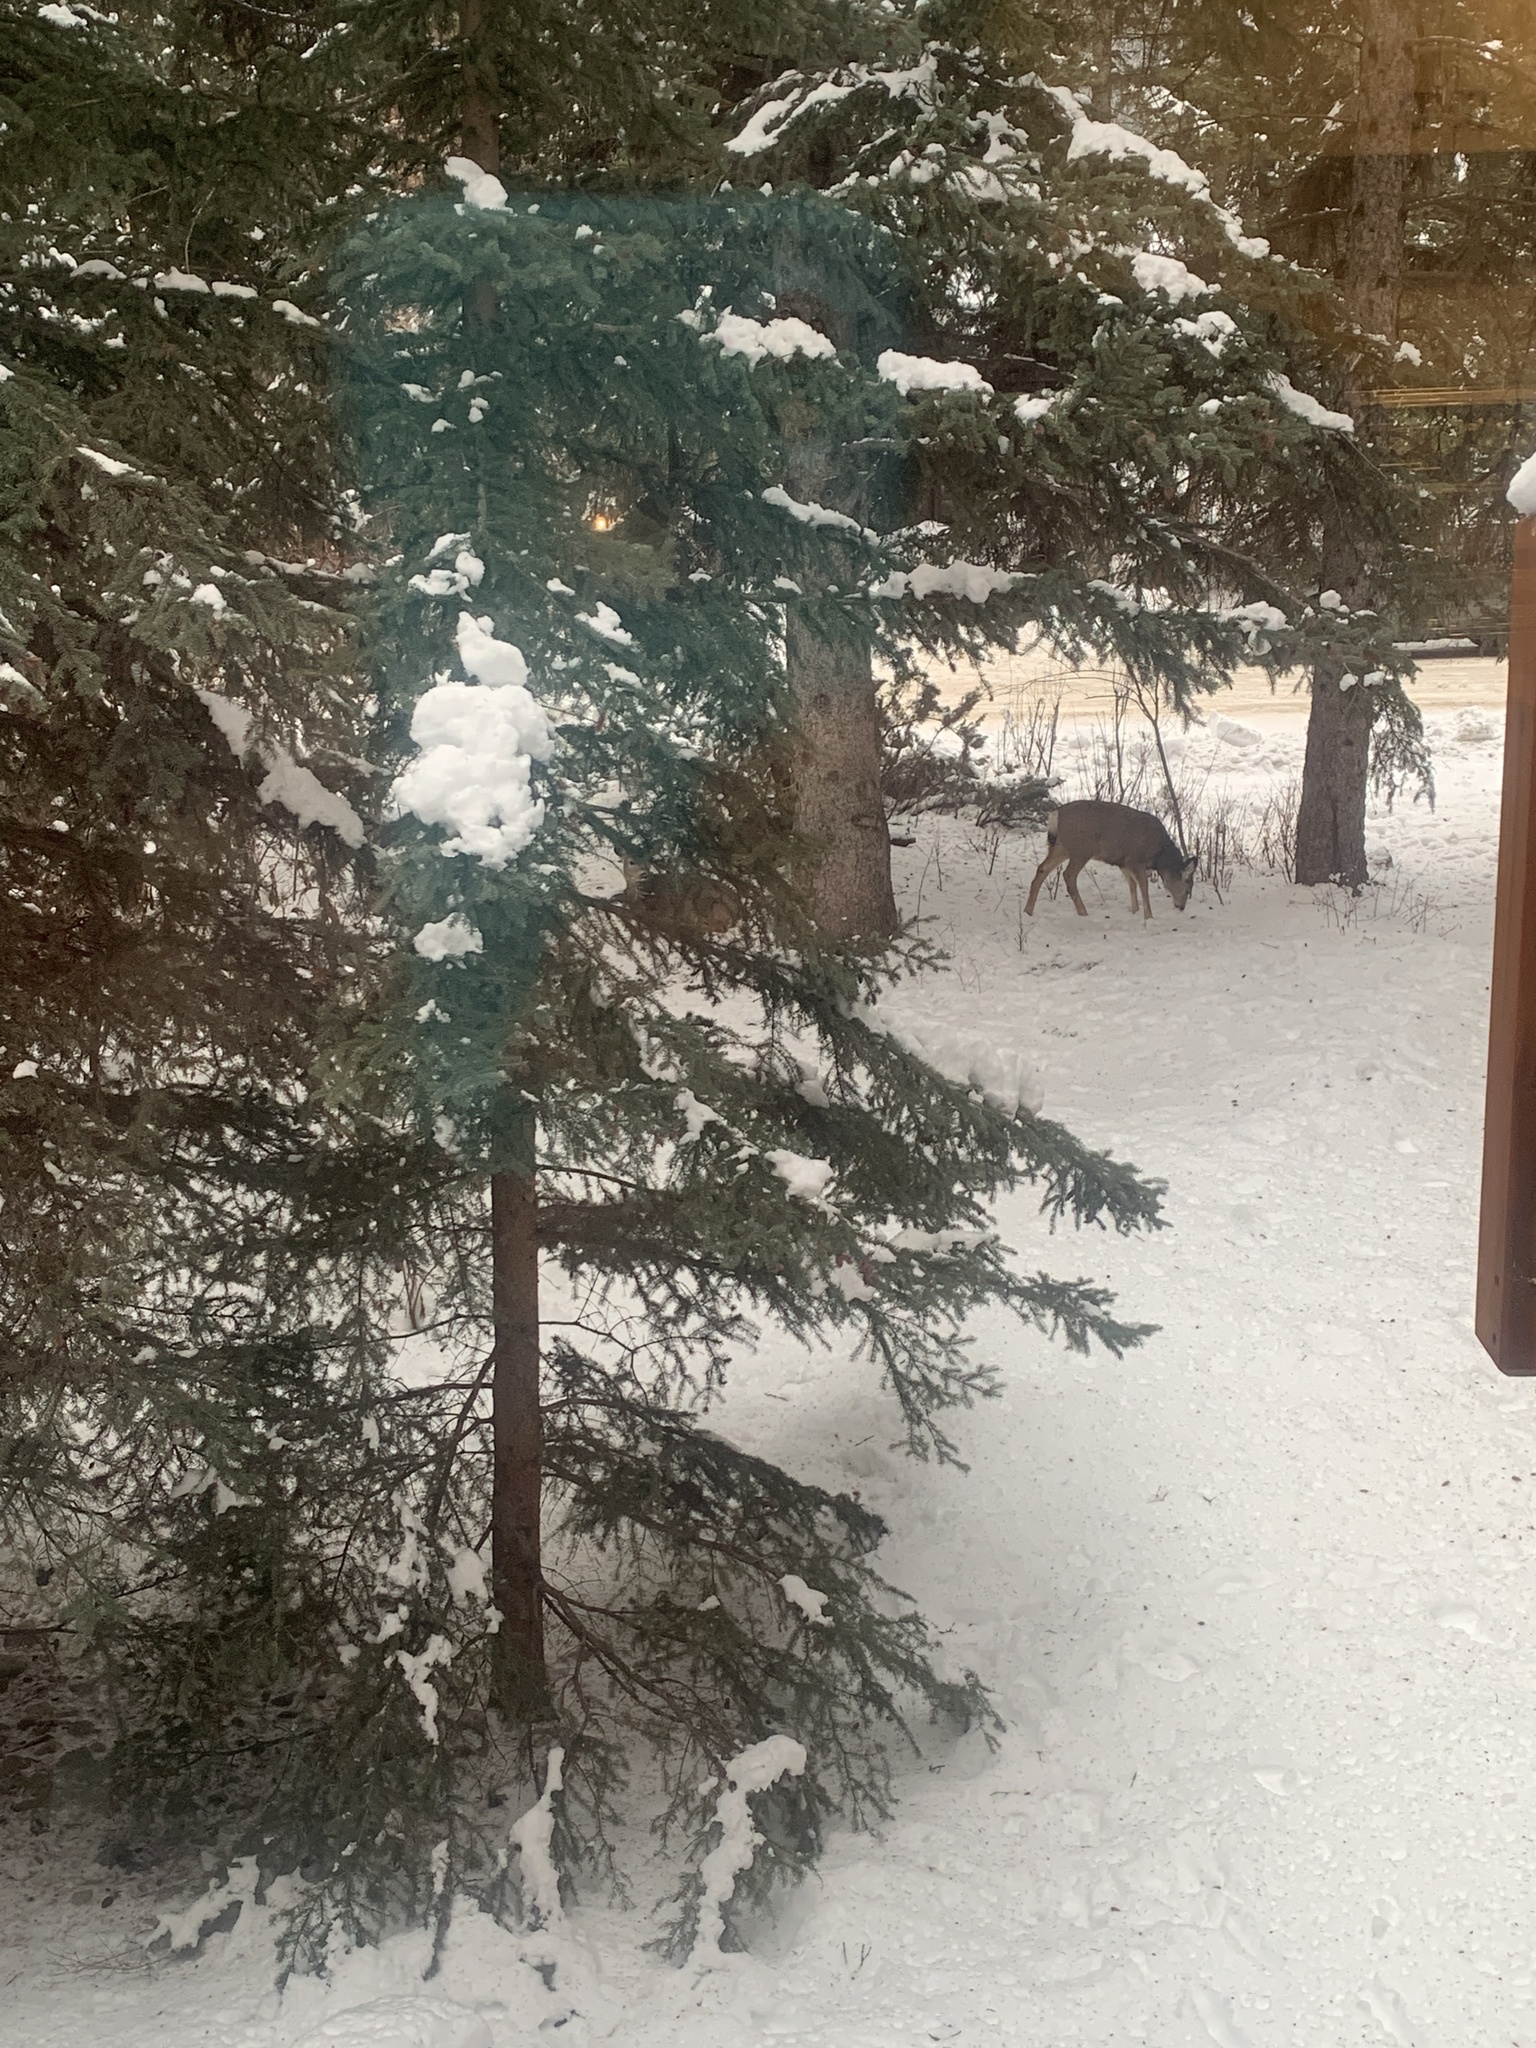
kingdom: Animalia
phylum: Chordata
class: Mammalia
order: Artiodactyla
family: Cervidae
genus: Odocoileus
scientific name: Odocoileus hemionus
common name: Mule deer
